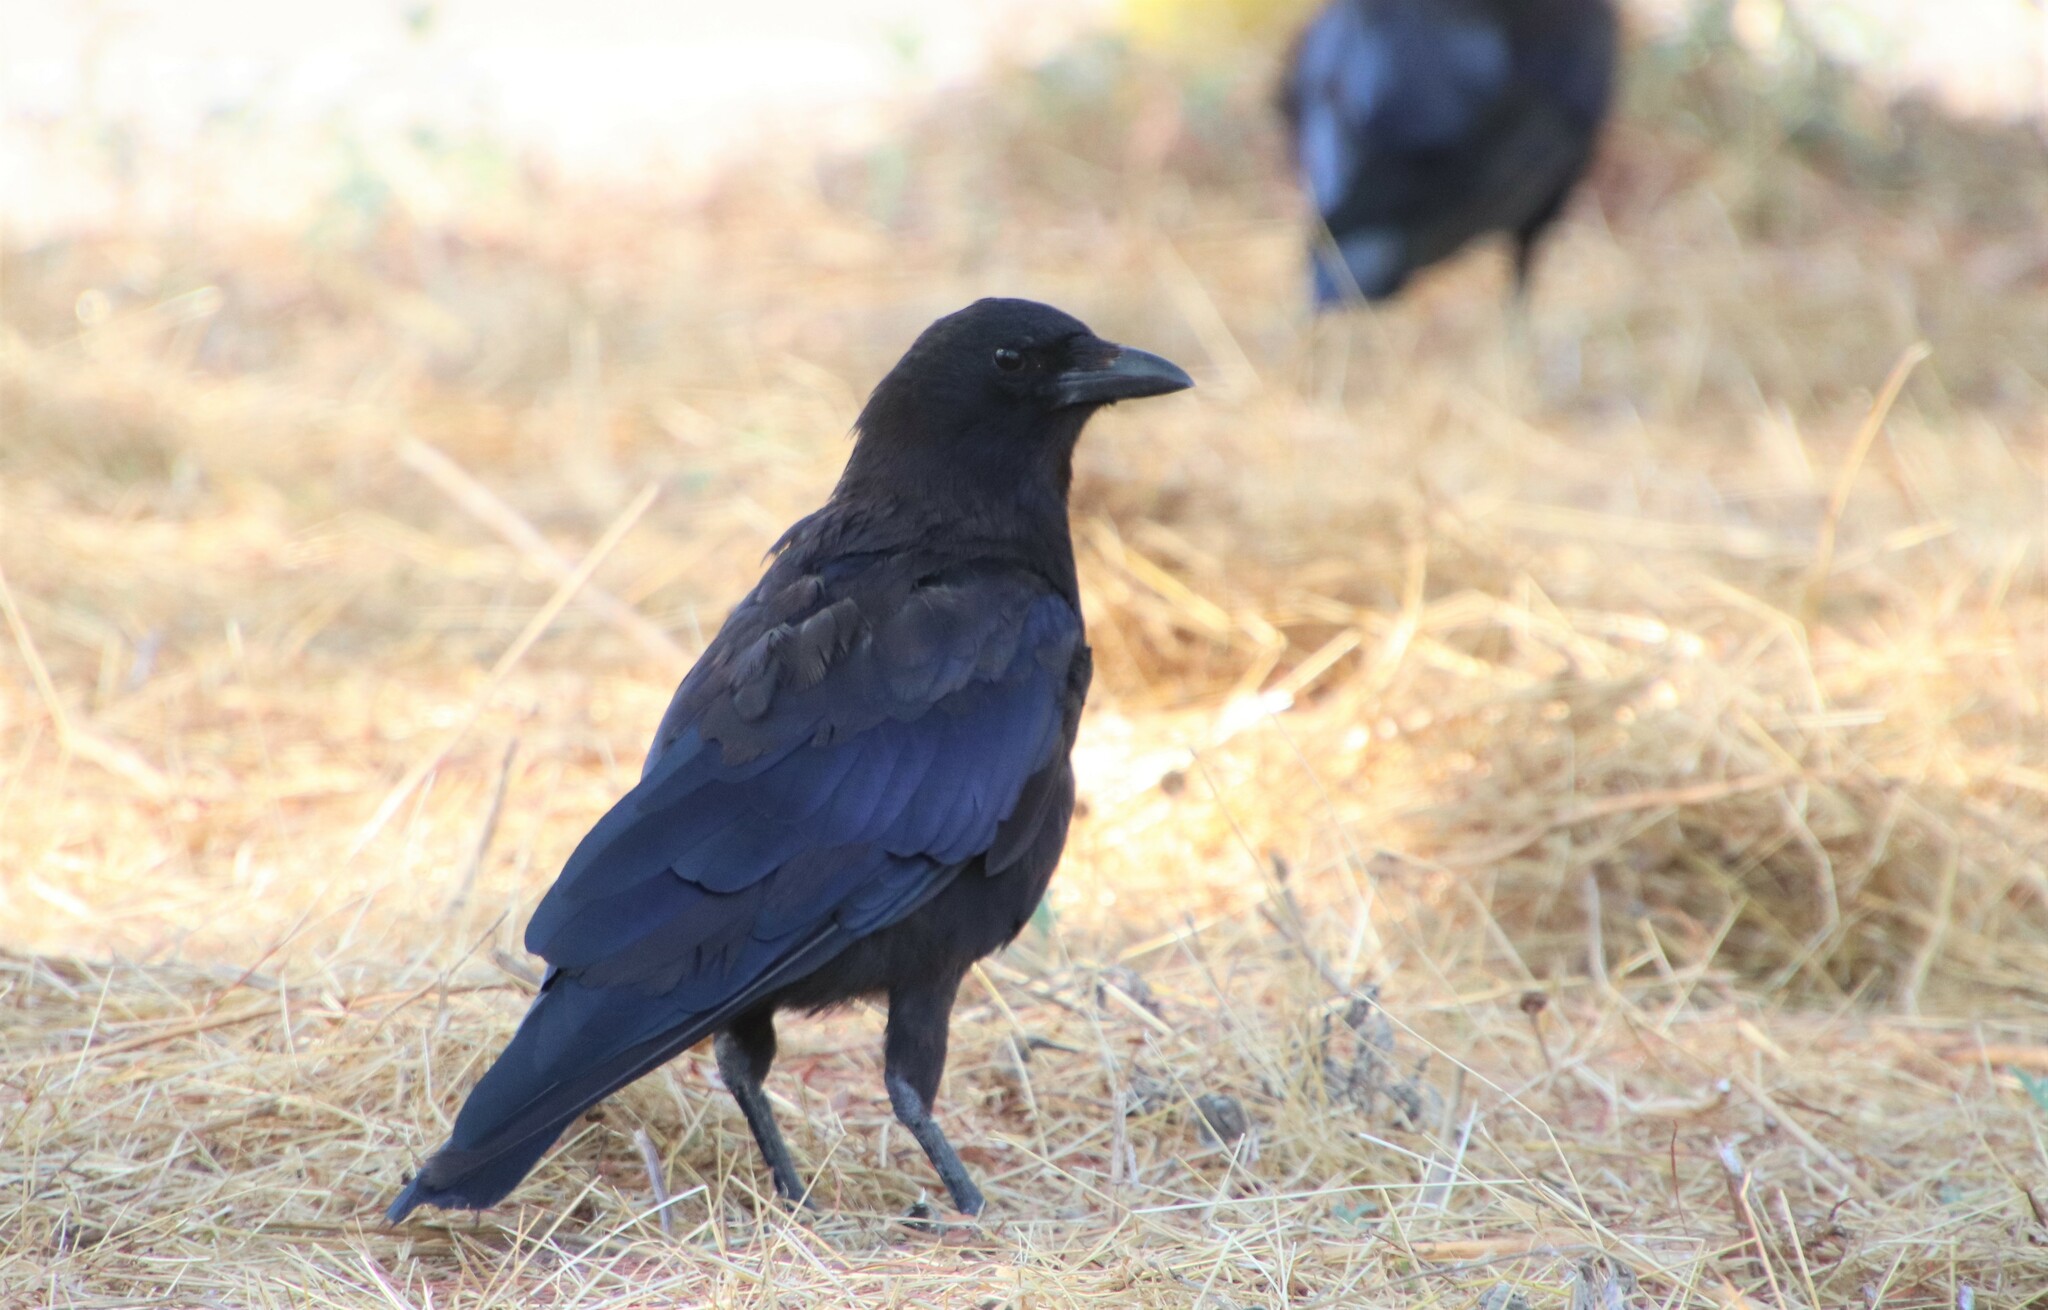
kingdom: Animalia
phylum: Chordata
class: Aves
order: Passeriformes
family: Corvidae
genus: Corvus
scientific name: Corvus brachyrhynchos
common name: American crow
